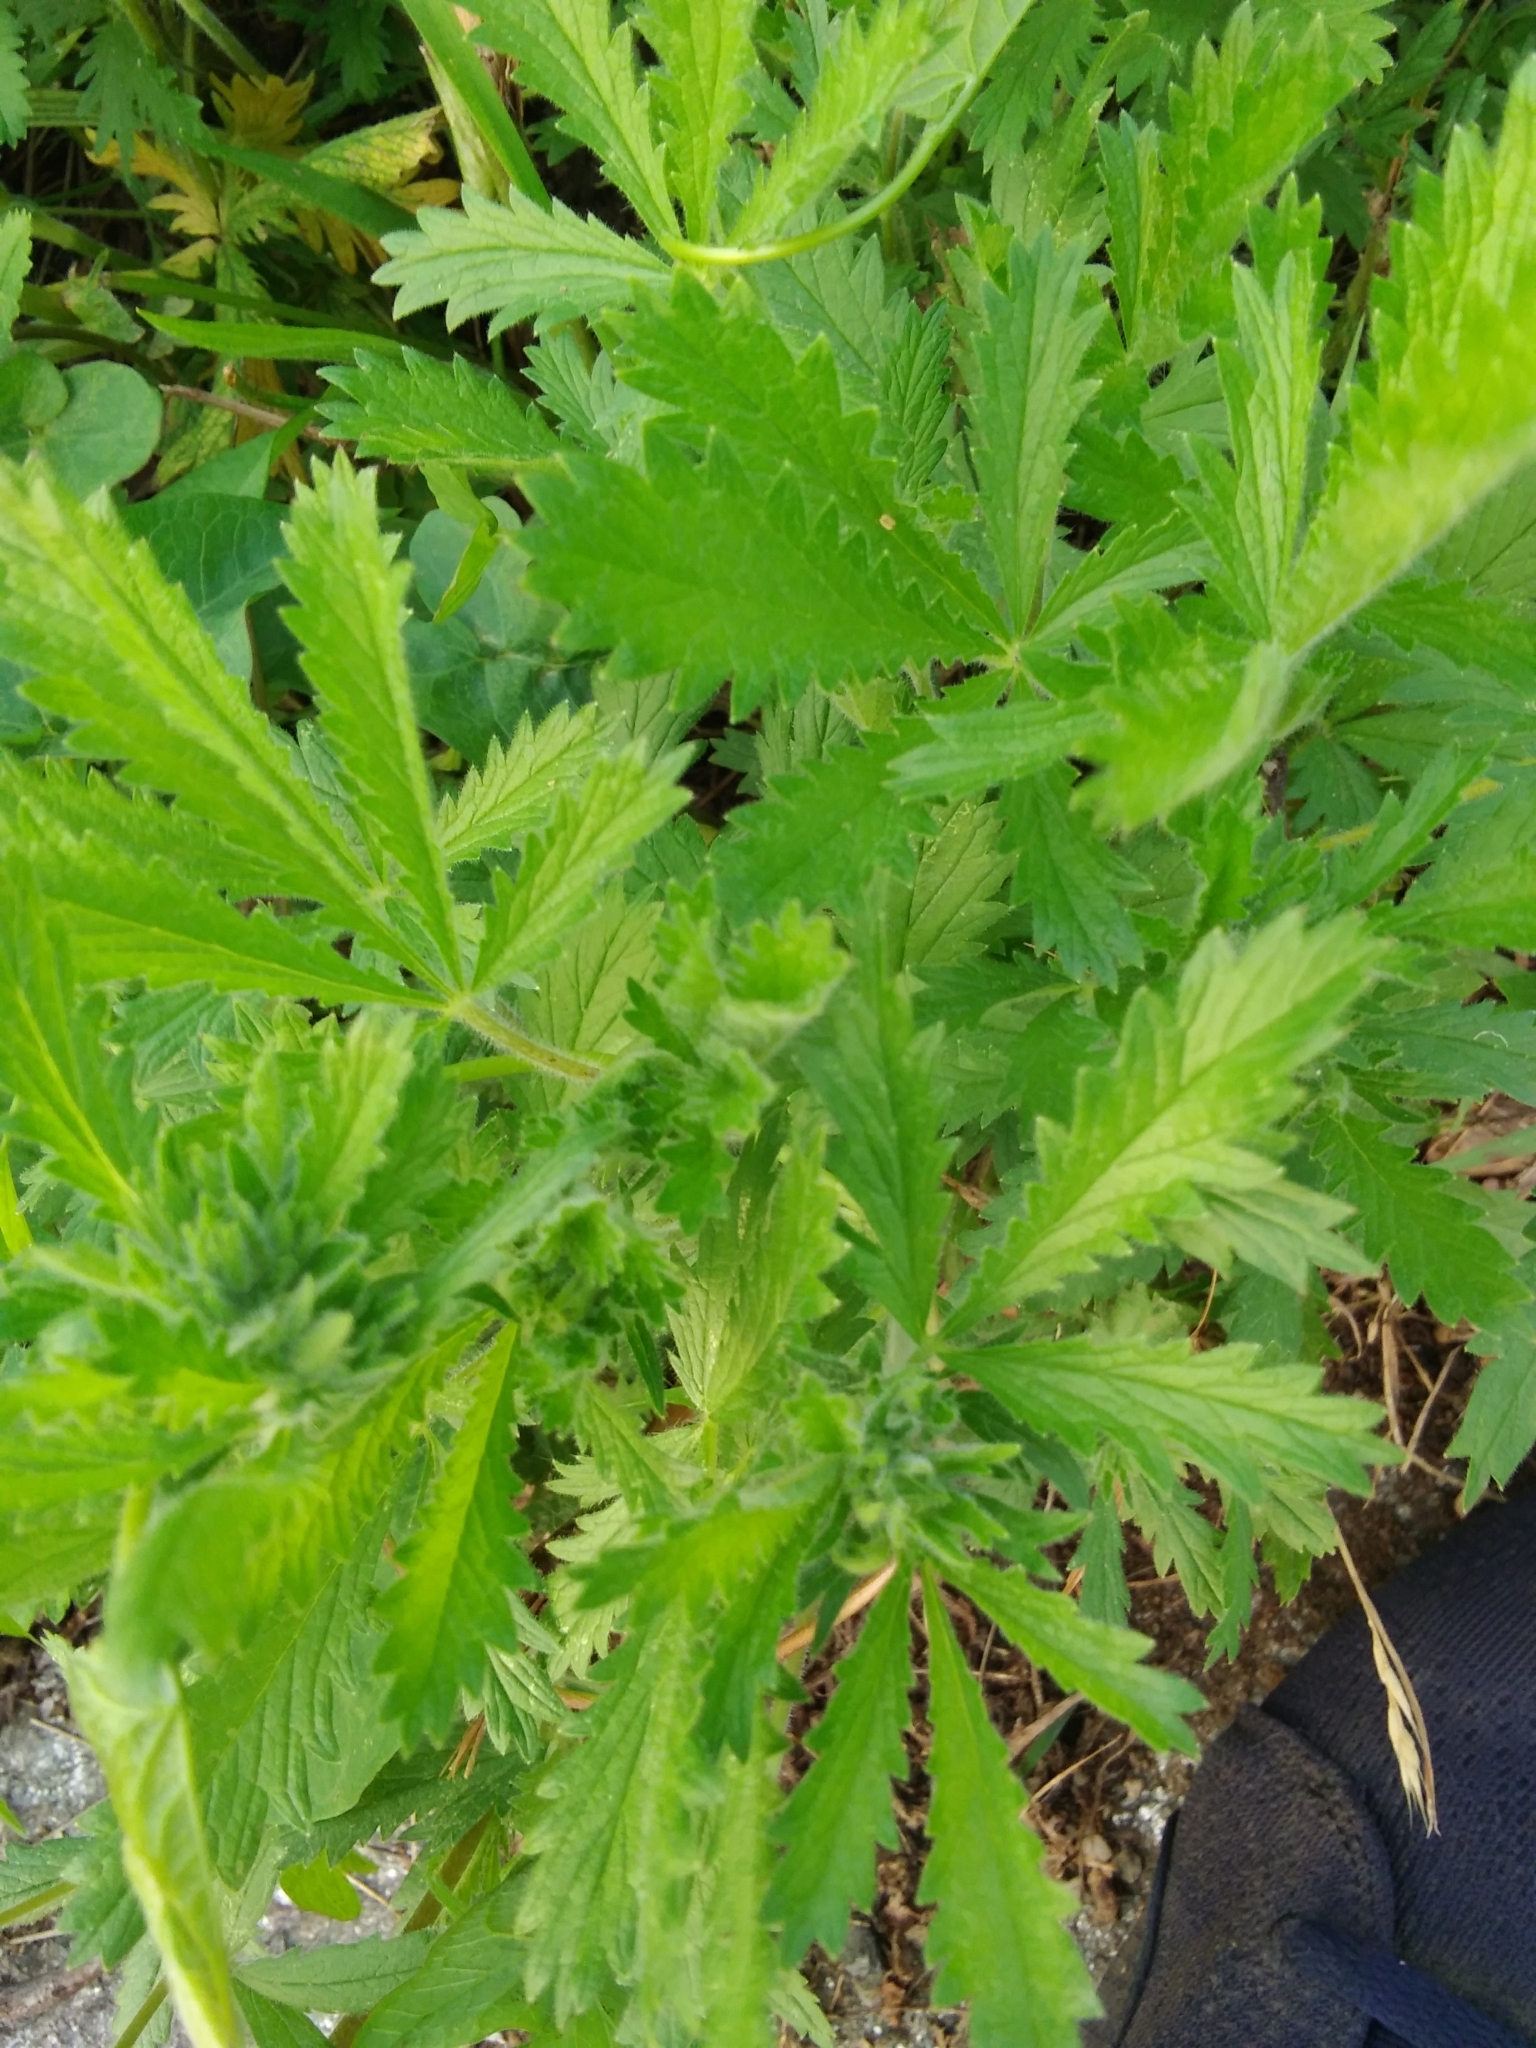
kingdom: Plantae
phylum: Tracheophyta
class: Magnoliopsida
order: Rosales
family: Rosaceae
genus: Potentilla
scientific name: Potentilla recta
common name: Sulphur cinquefoil
